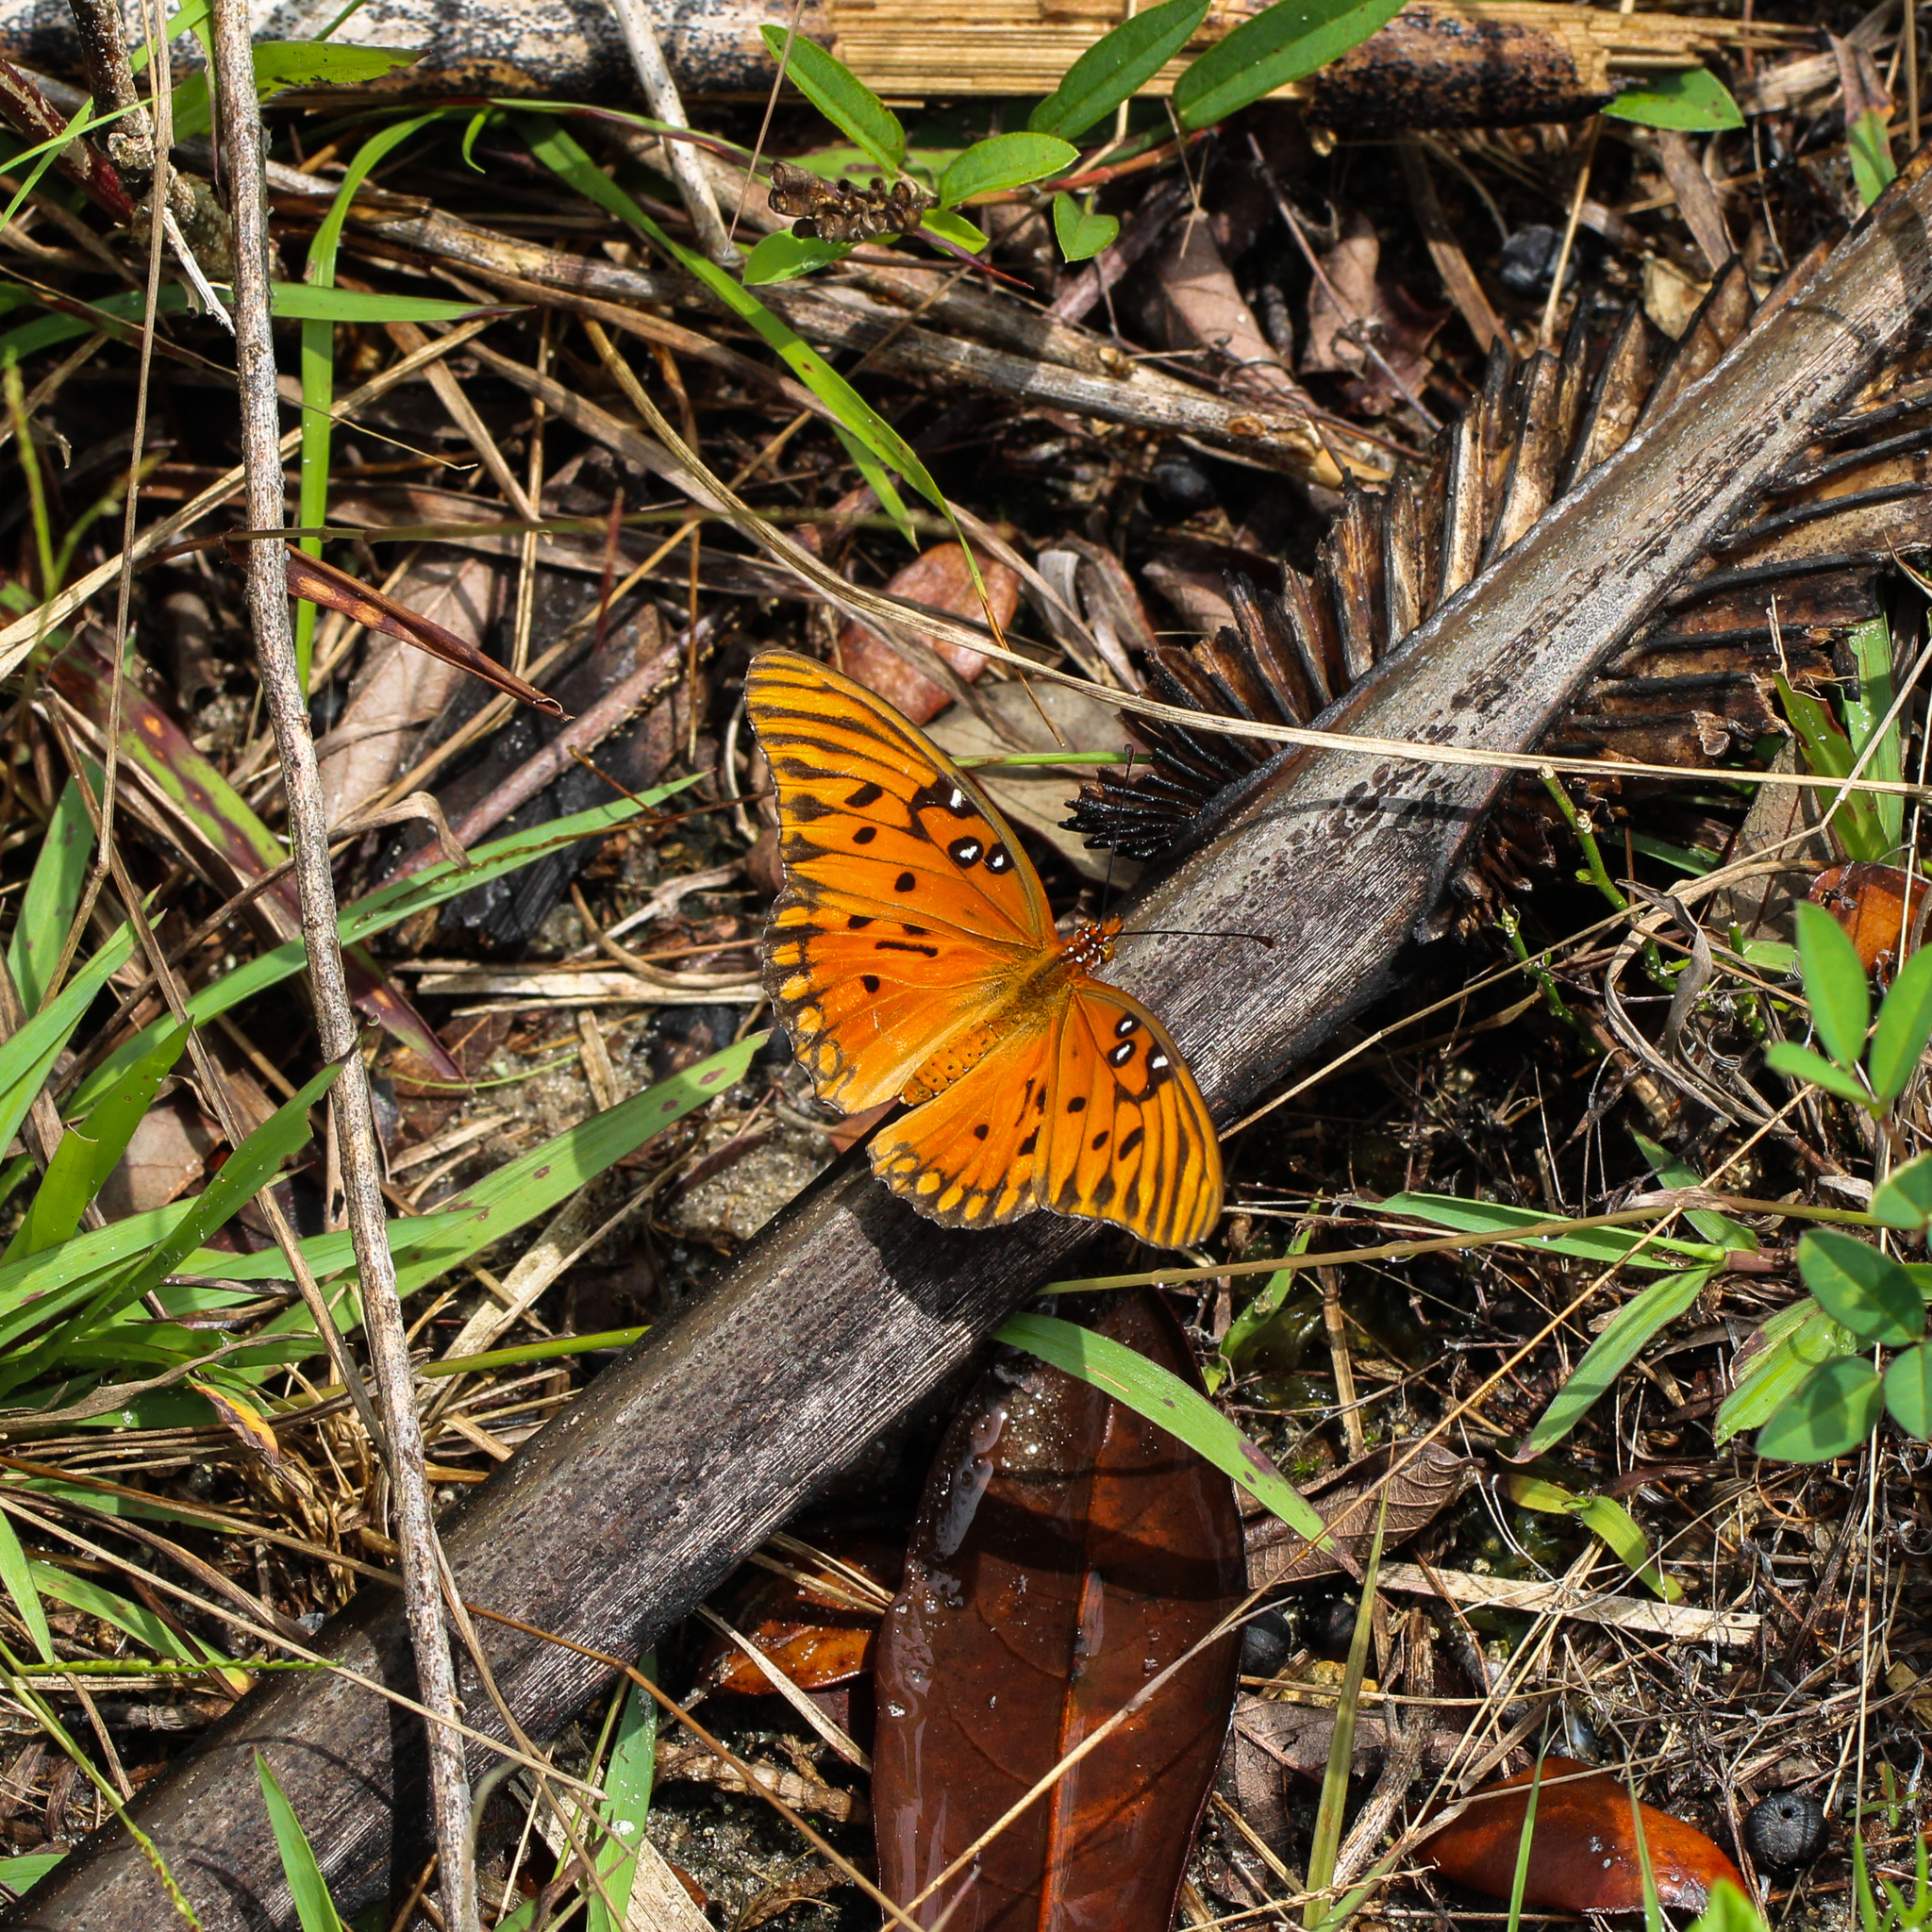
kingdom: Animalia
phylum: Arthropoda
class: Insecta
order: Lepidoptera
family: Nymphalidae
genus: Dione
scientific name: Dione vanillae
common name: Gulf fritillary
